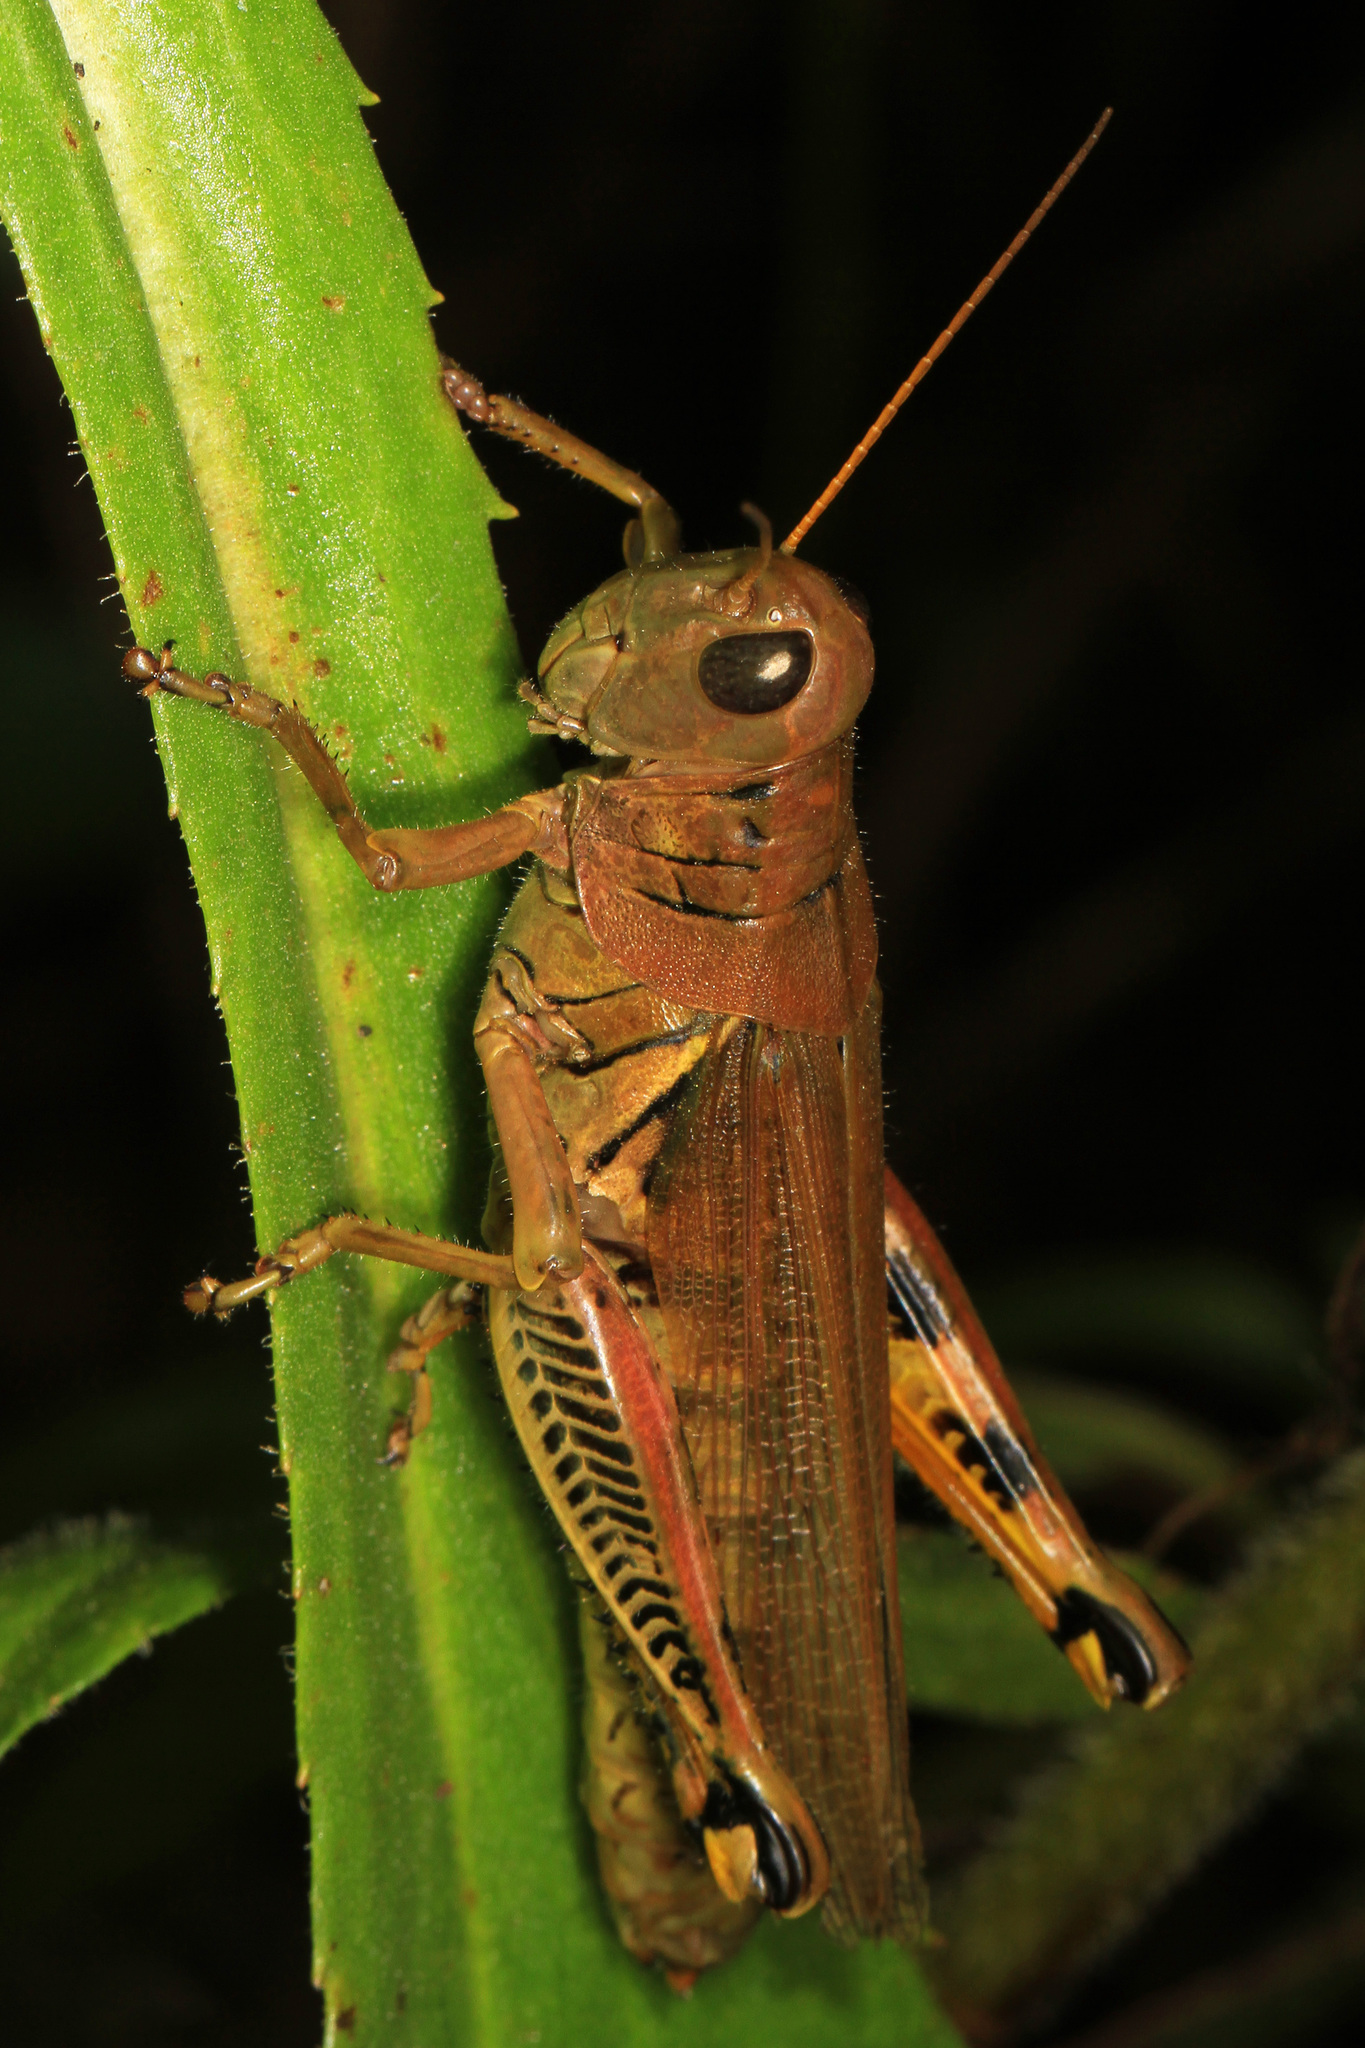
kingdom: Animalia
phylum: Arthropoda
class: Insecta
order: Orthoptera
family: Acrididae
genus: Melanoplus
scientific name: Melanoplus differentialis
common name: Differential grasshopper
